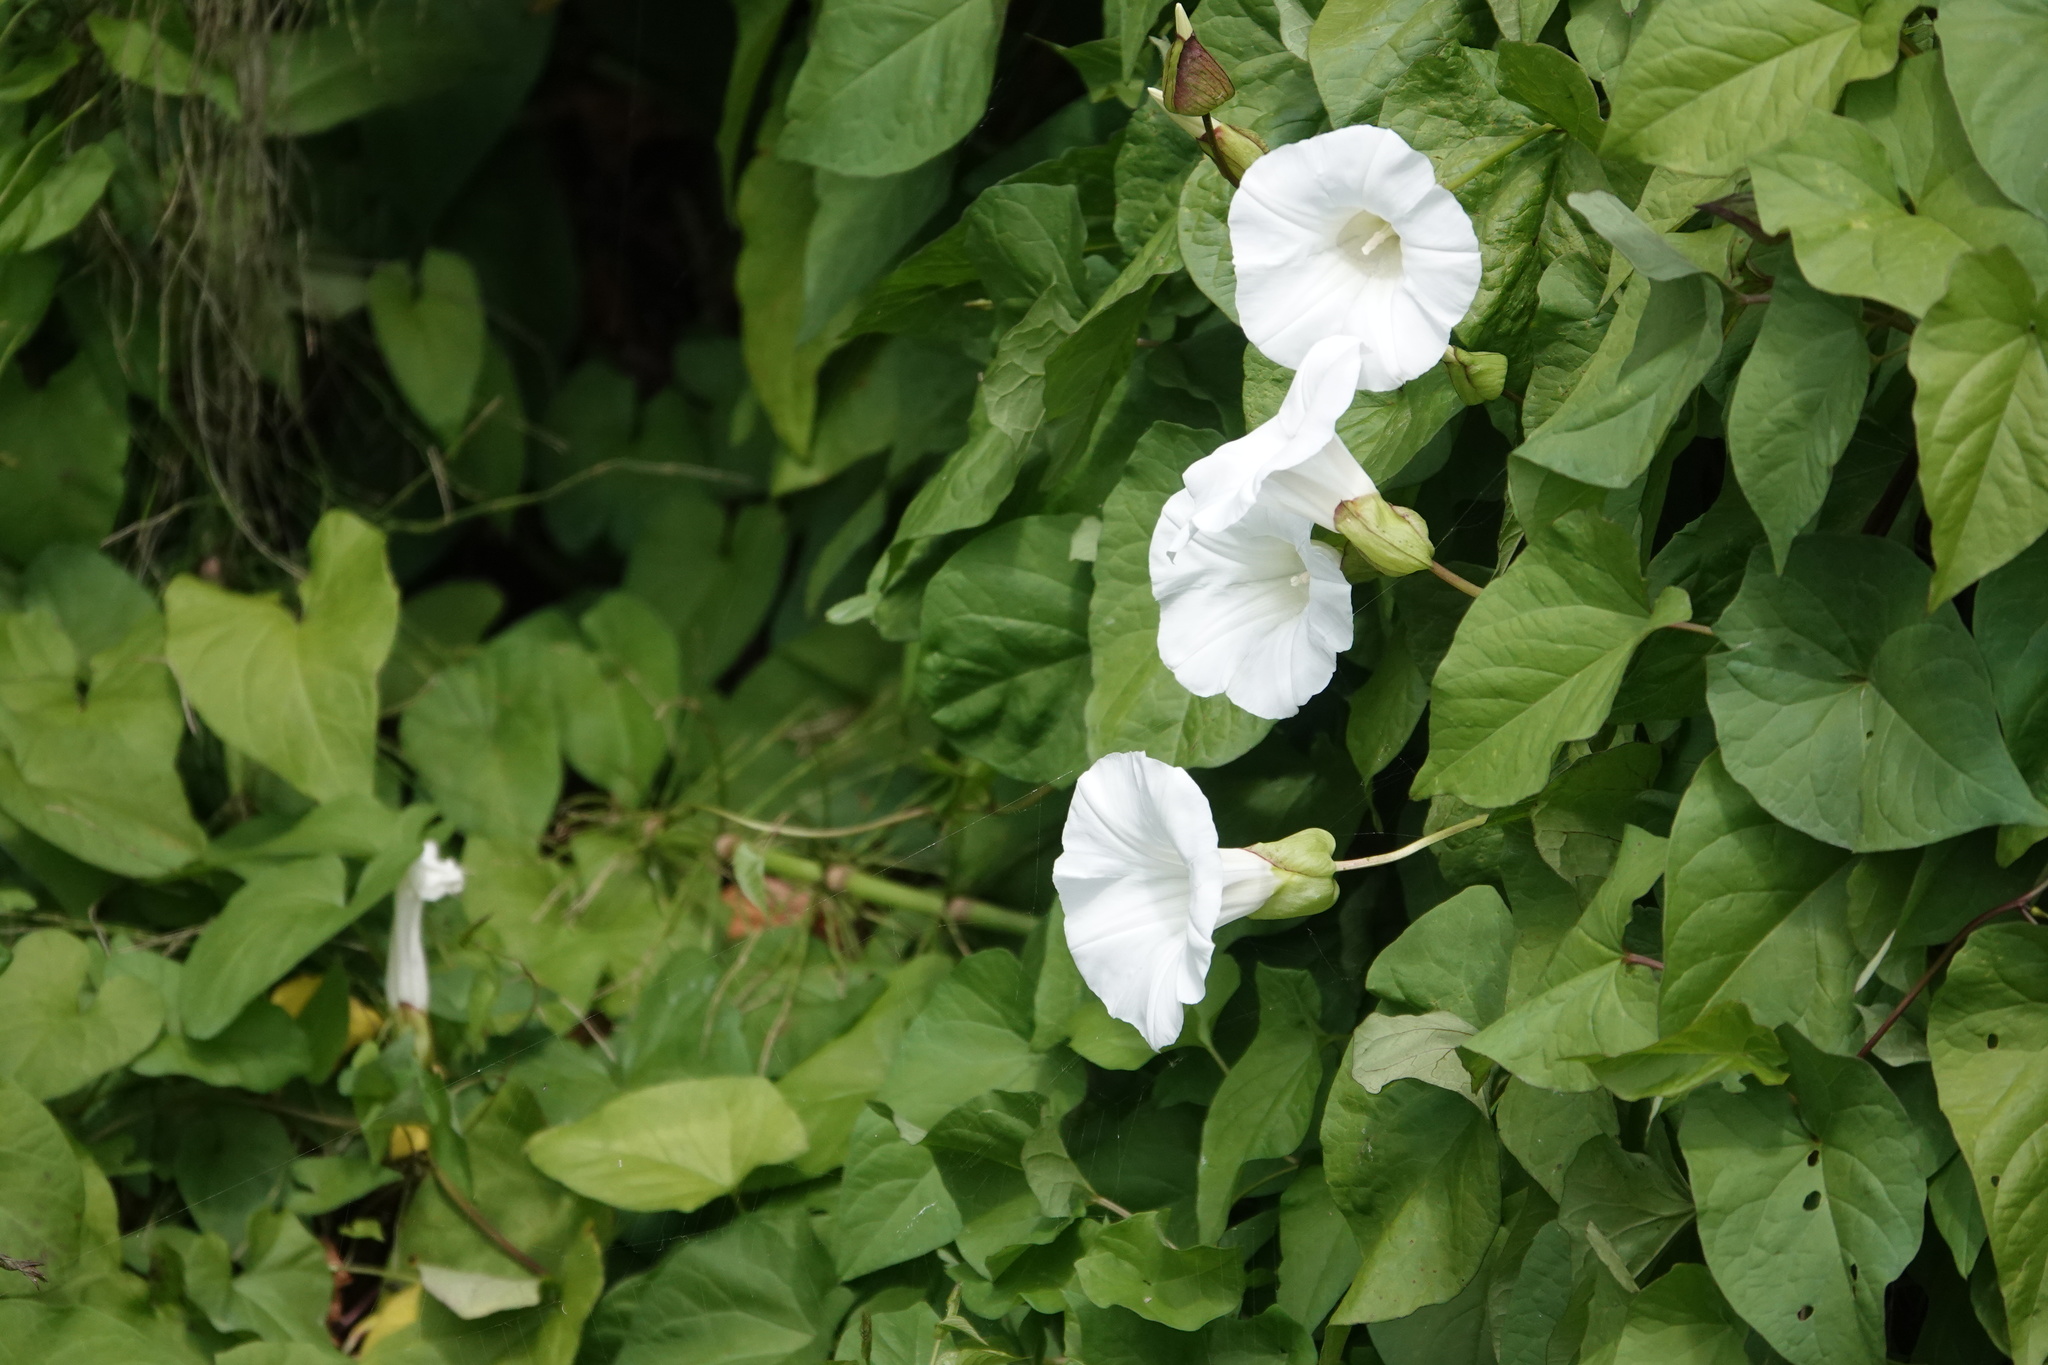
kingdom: Plantae
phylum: Tracheophyta
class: Magnoliopsida
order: Solanales
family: Convolvulaceae
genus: Calystegia
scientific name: Calystegia silvatica
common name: Large bindweed
